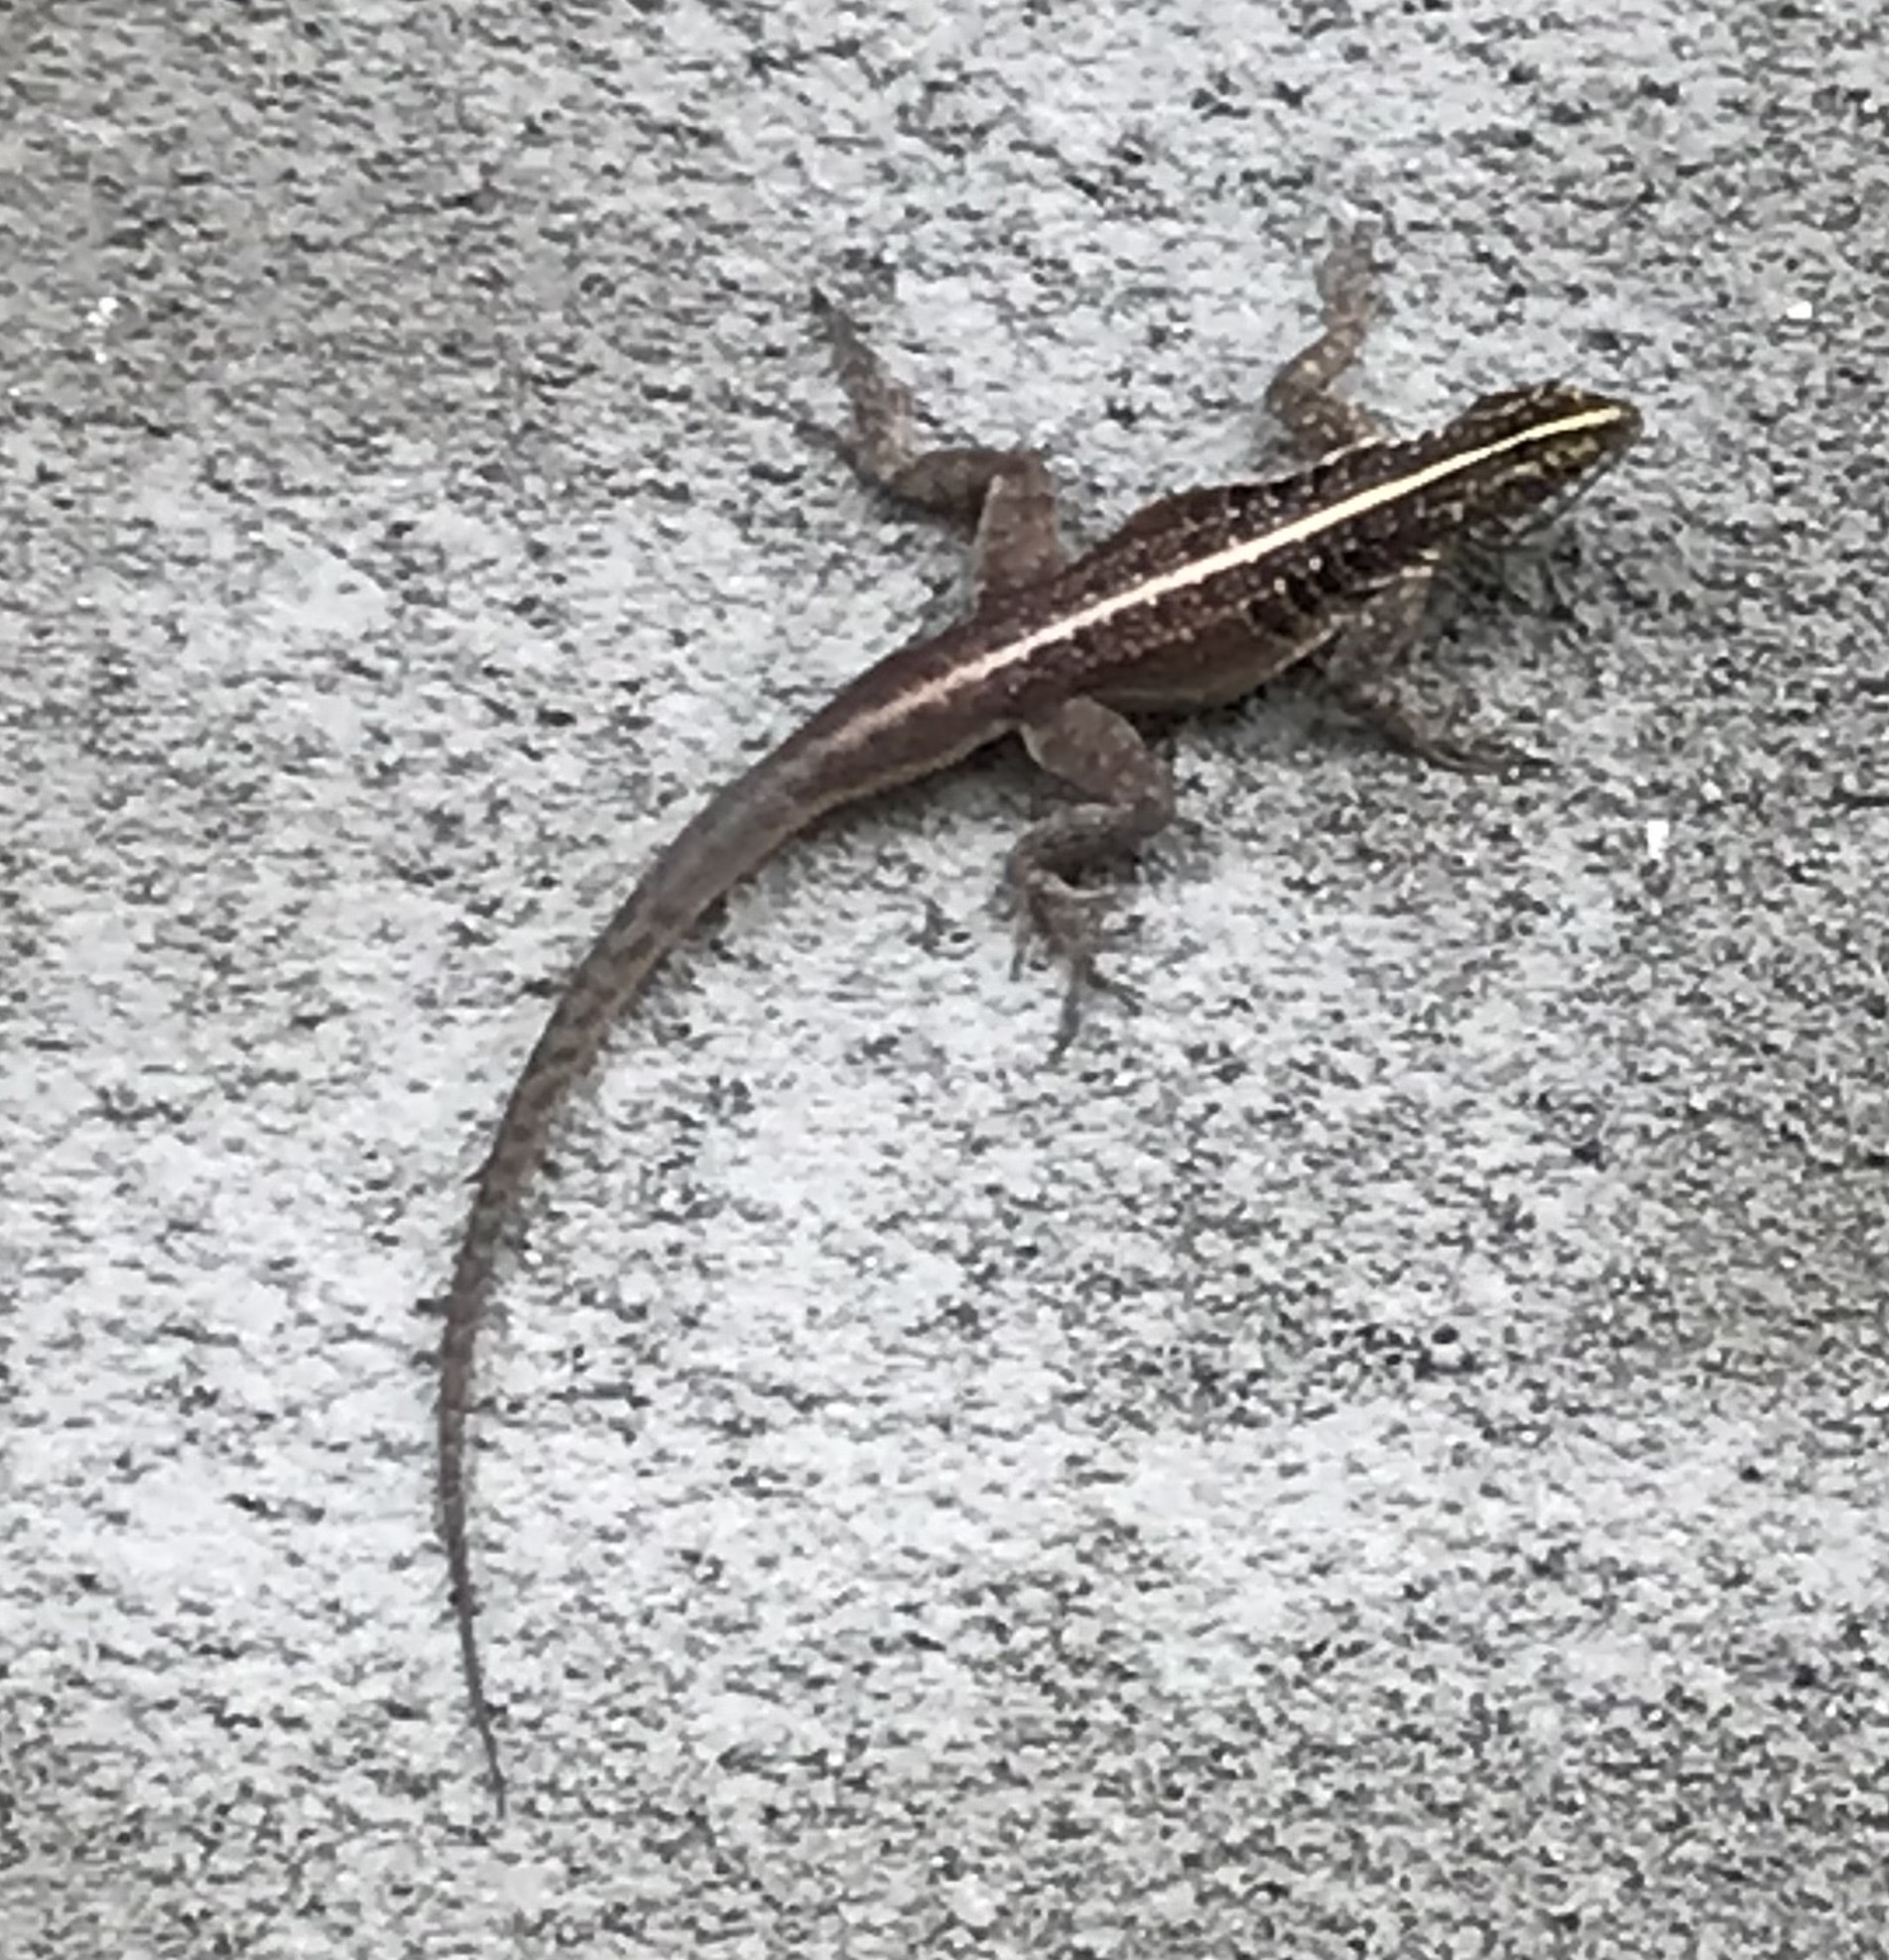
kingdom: Animalia
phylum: Chordata
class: Squamata
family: Tropiduridae
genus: Tropidurus
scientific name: Tropidurus semitaeniatus
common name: Striped lava lizard
